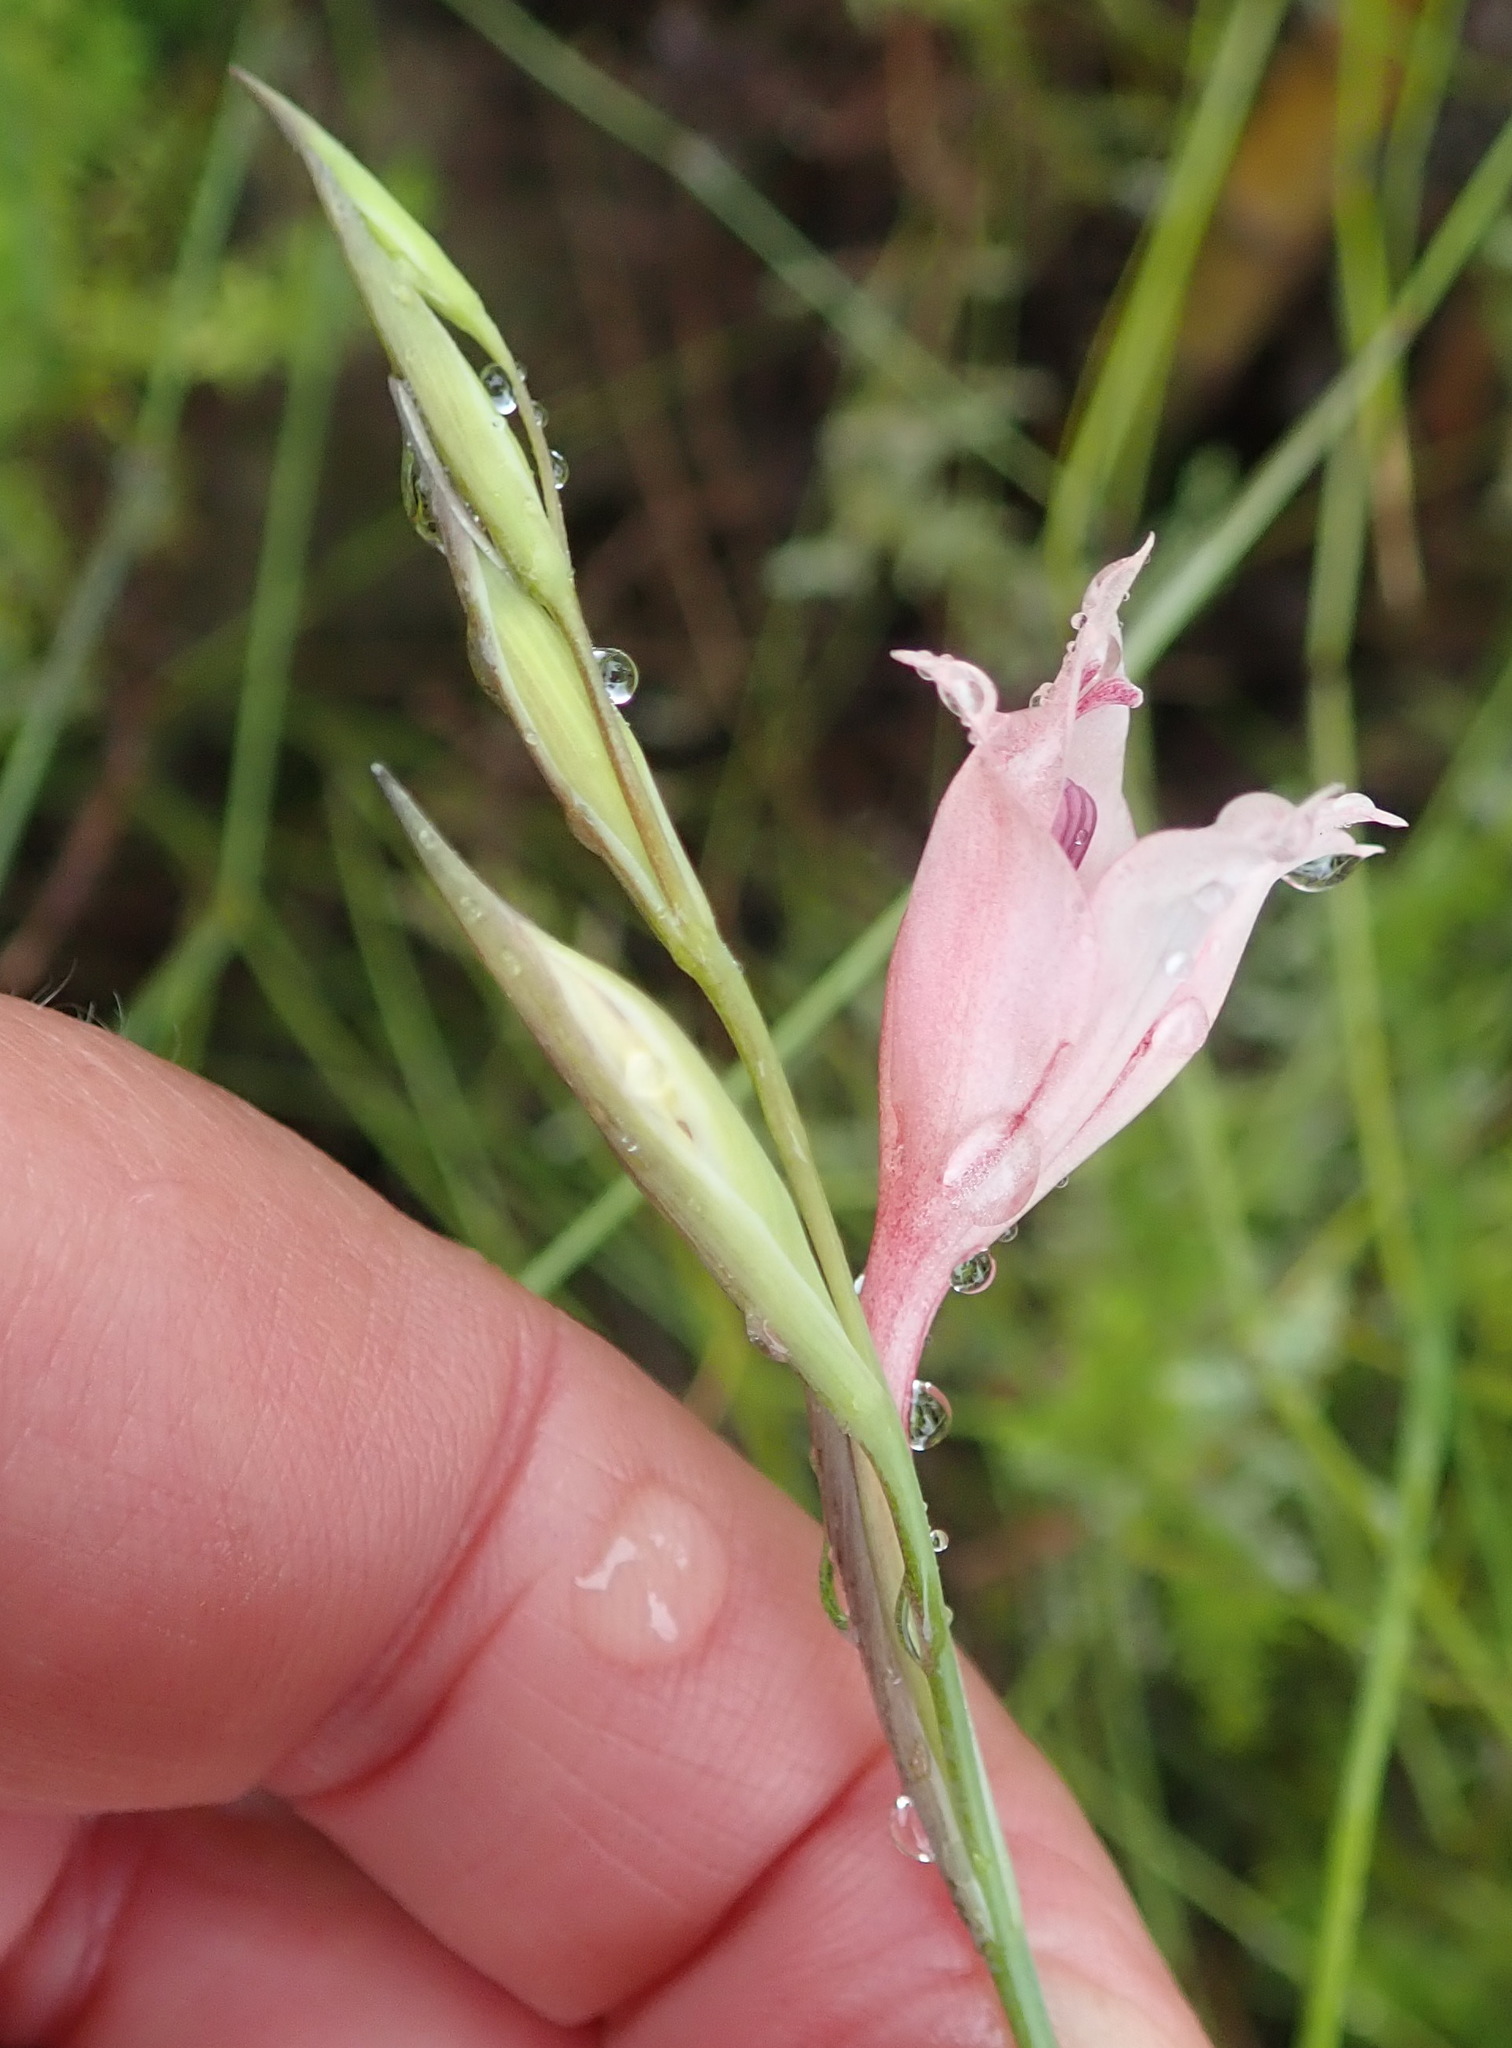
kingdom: Plantae
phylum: Tracheophyta
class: Liliopsida
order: Asparagales
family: Iridaceae
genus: Gladiolus
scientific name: Gladiolus nigromontanus
